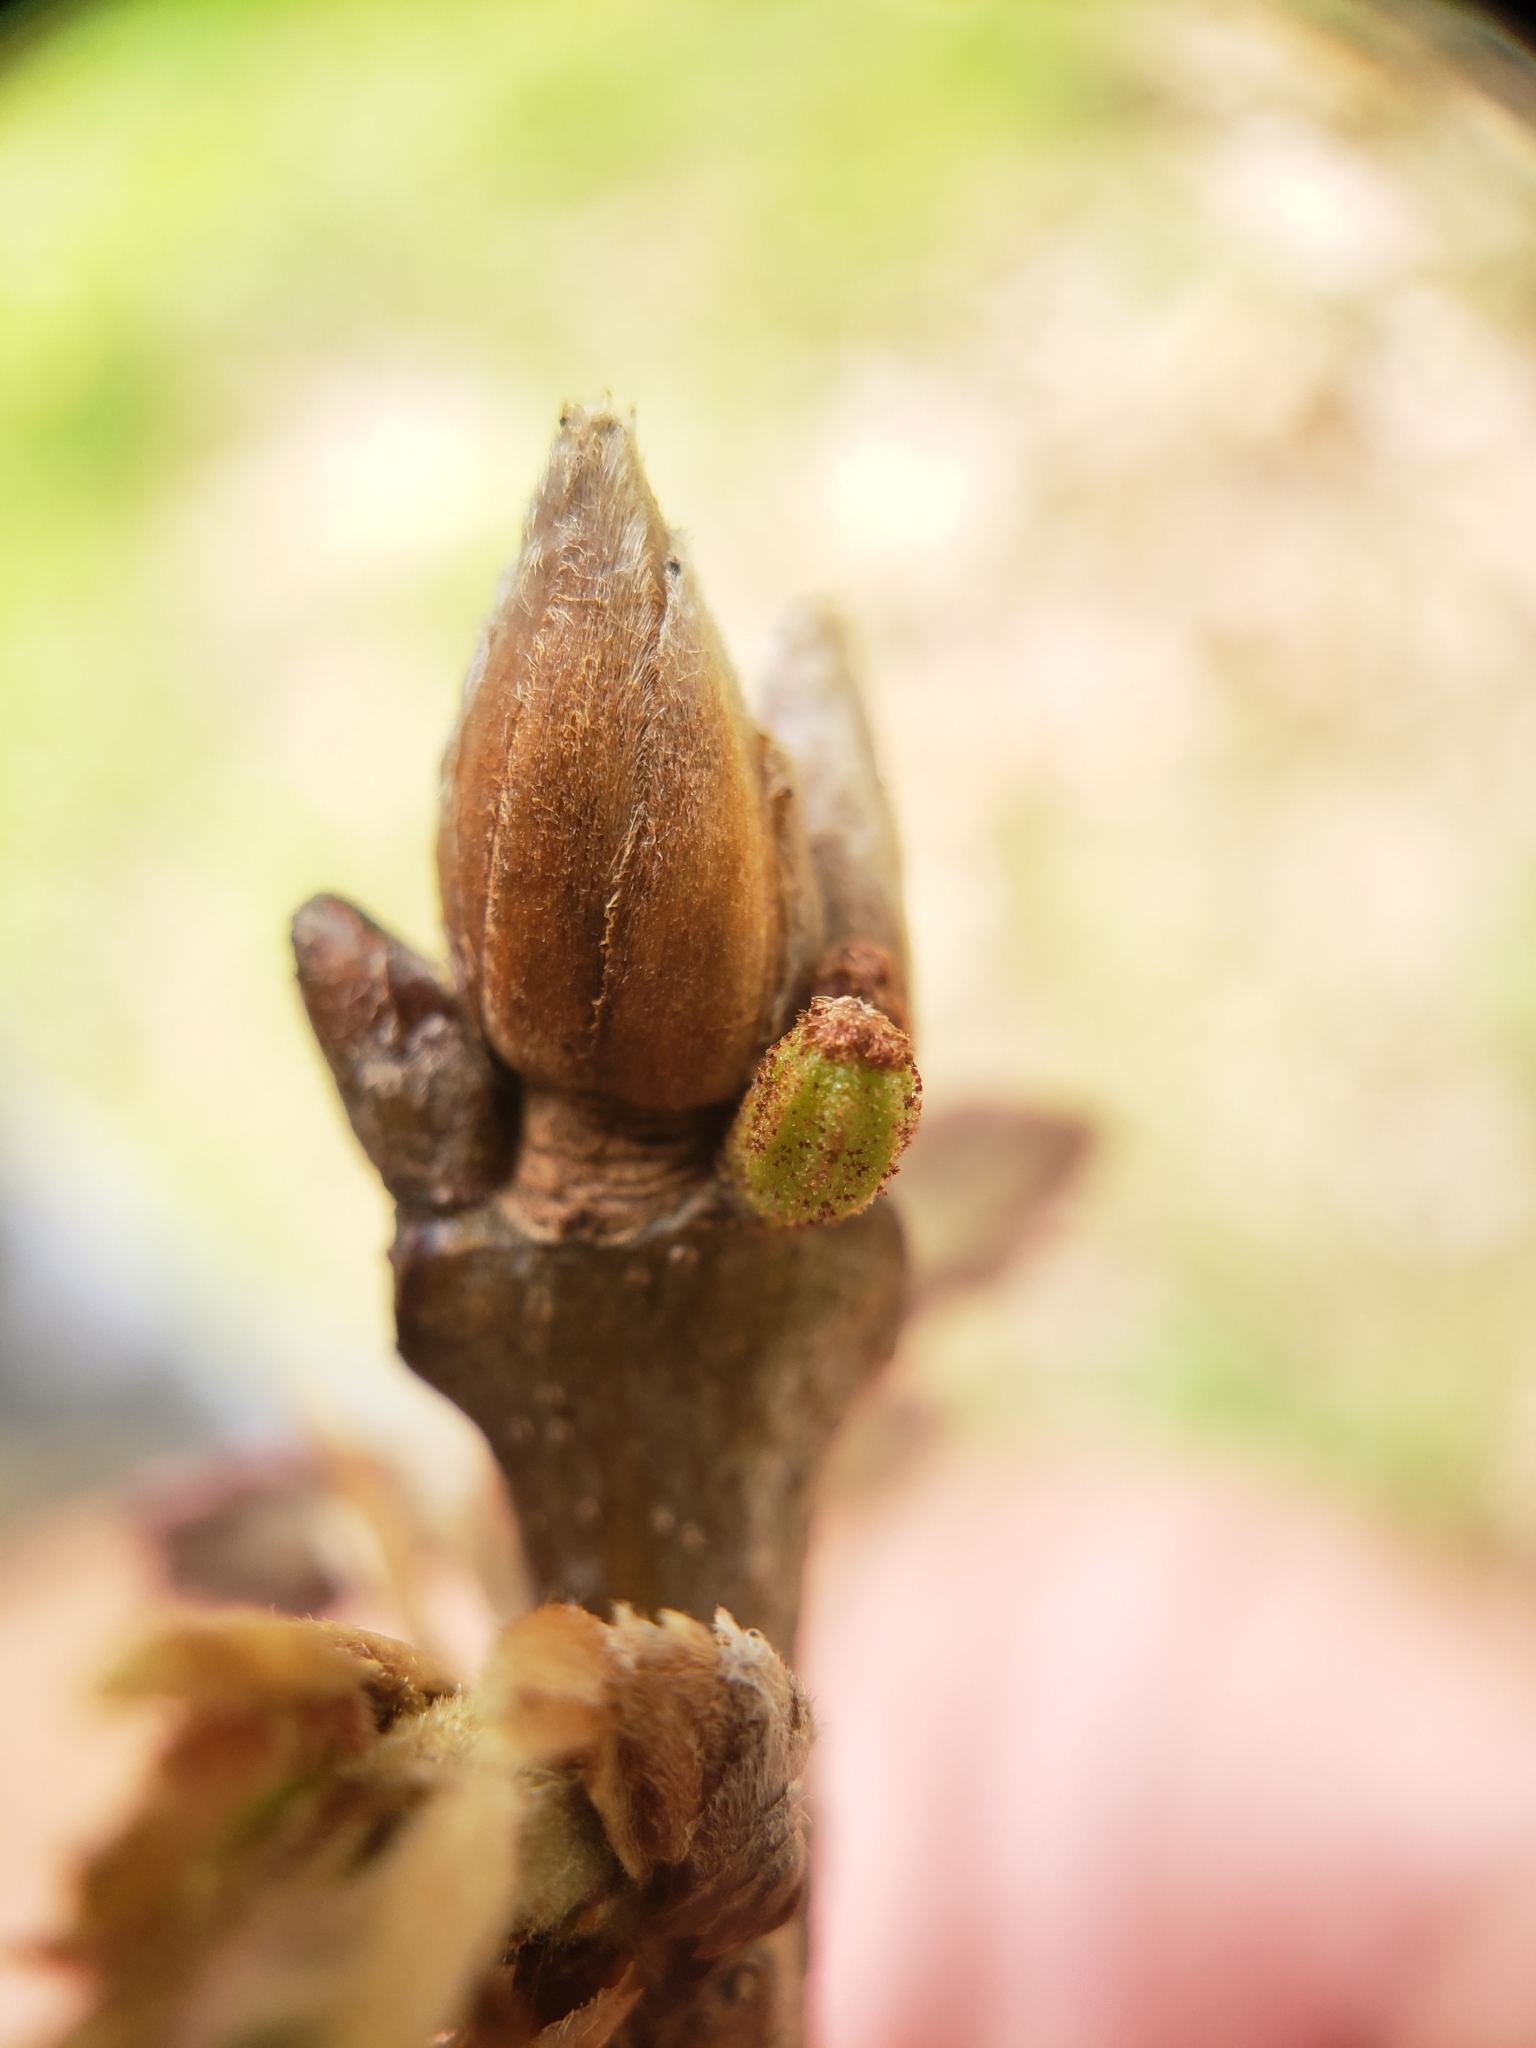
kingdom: Animalia
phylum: Arthropoda
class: Insecta
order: Hymenoptera
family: Cynipidae
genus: Callirhytis
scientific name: Callirhytis
